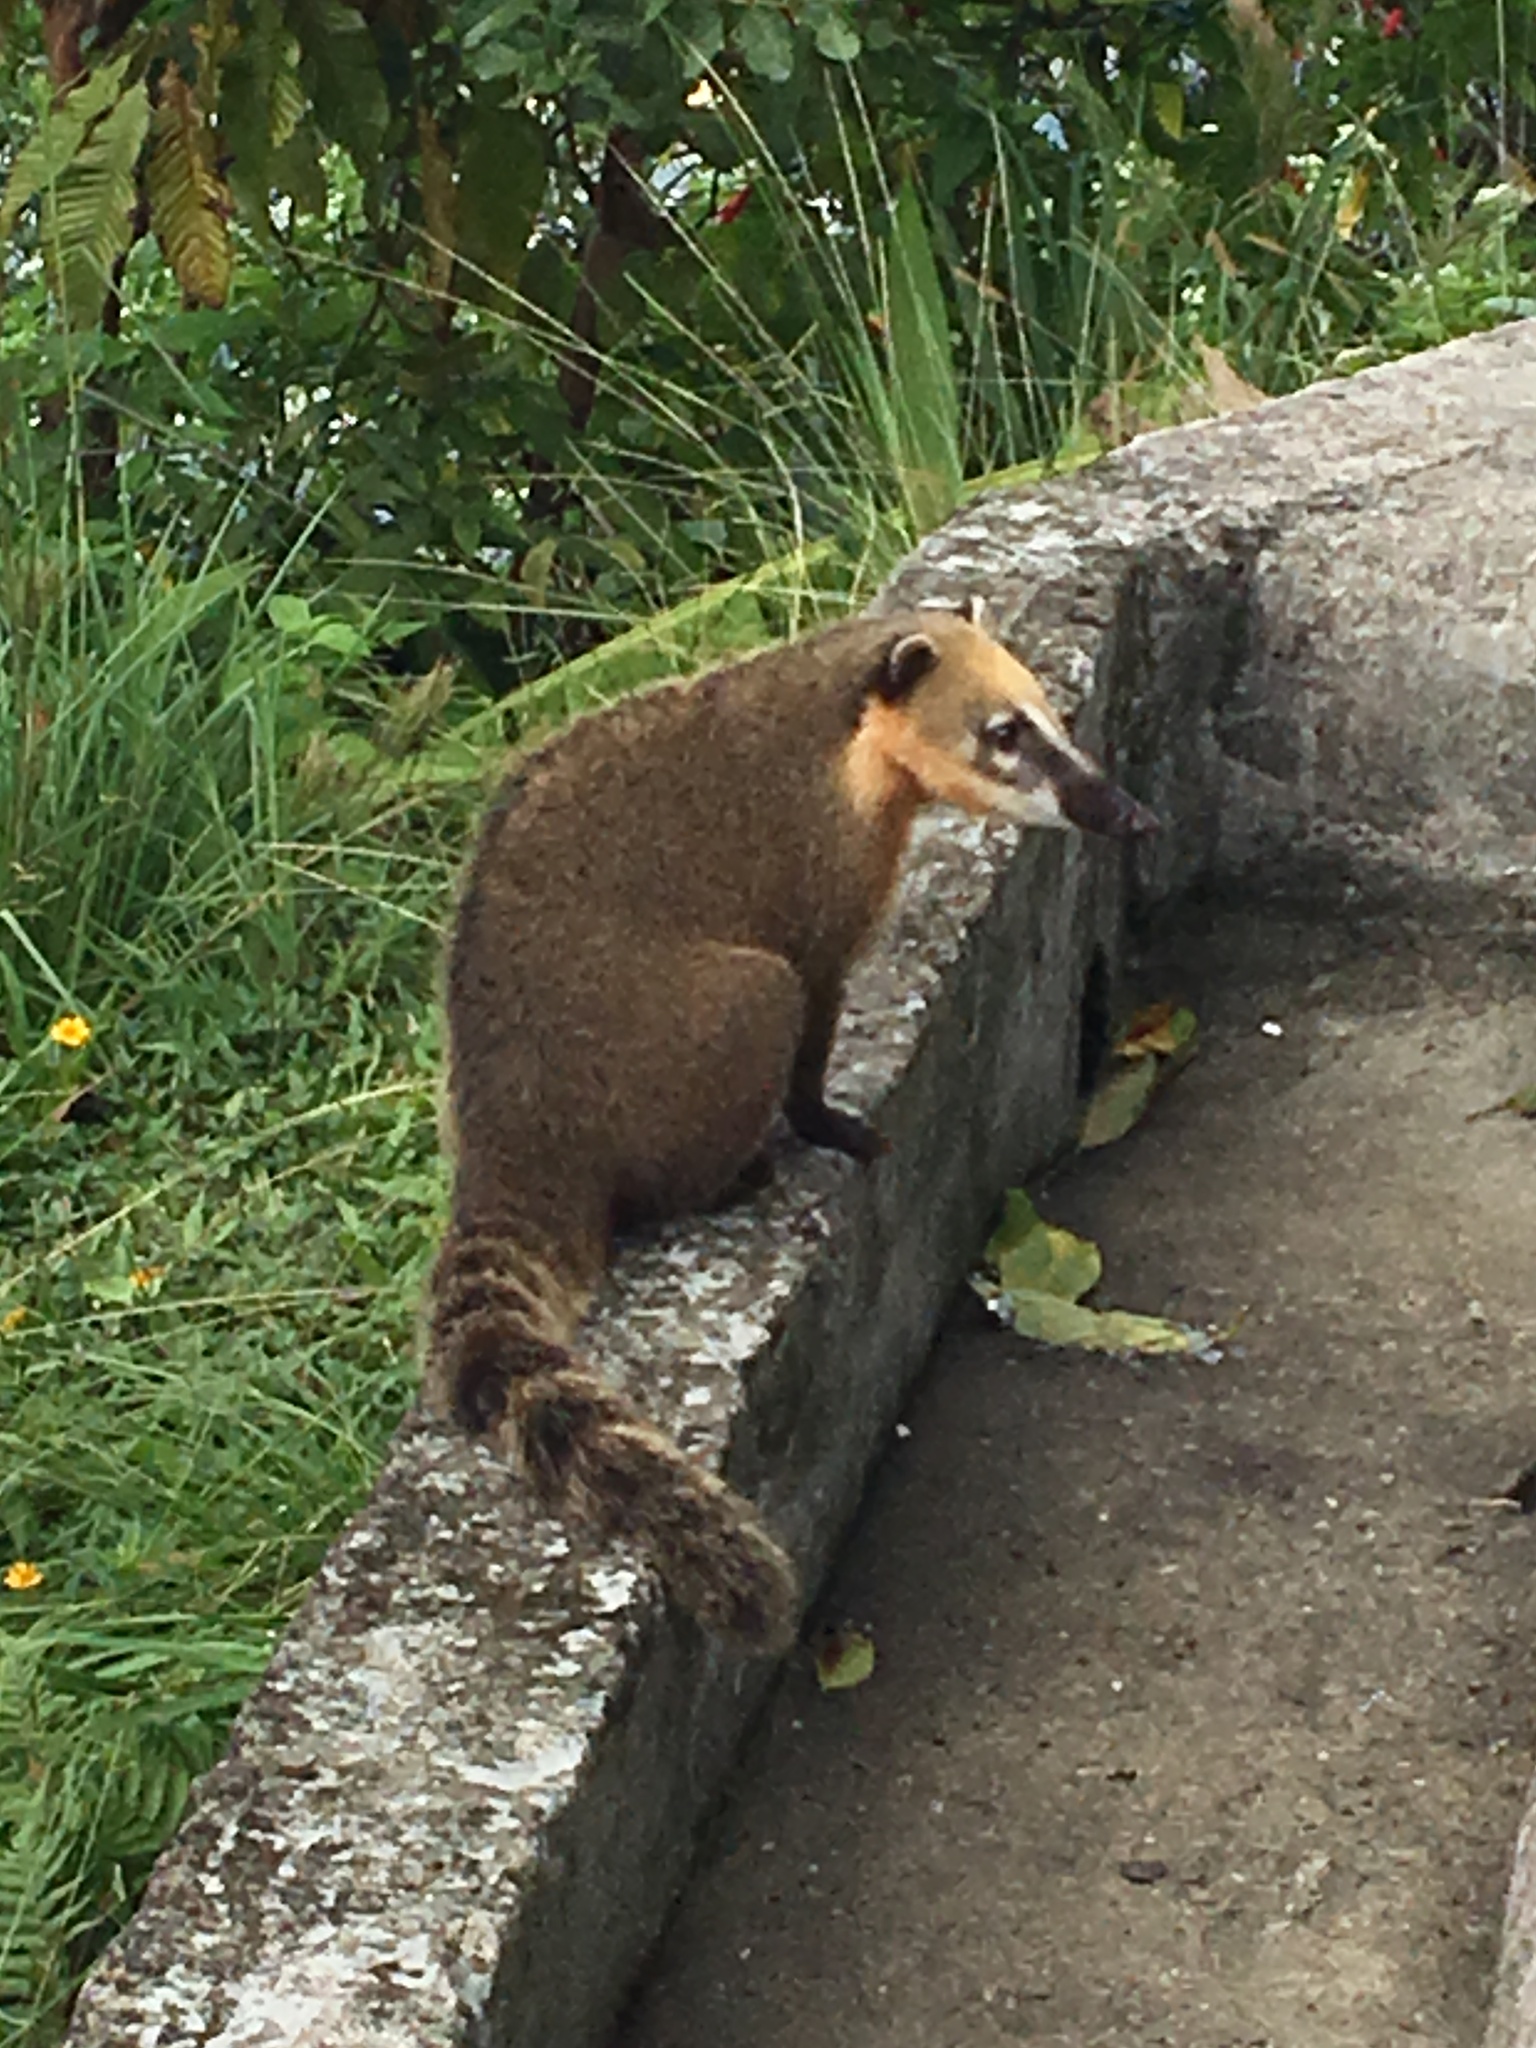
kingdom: Animalia
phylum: Chordata
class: Mammalia
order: Carnivora
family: Procyonidae
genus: Nasua
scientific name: Nasua nasua
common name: South american coati
